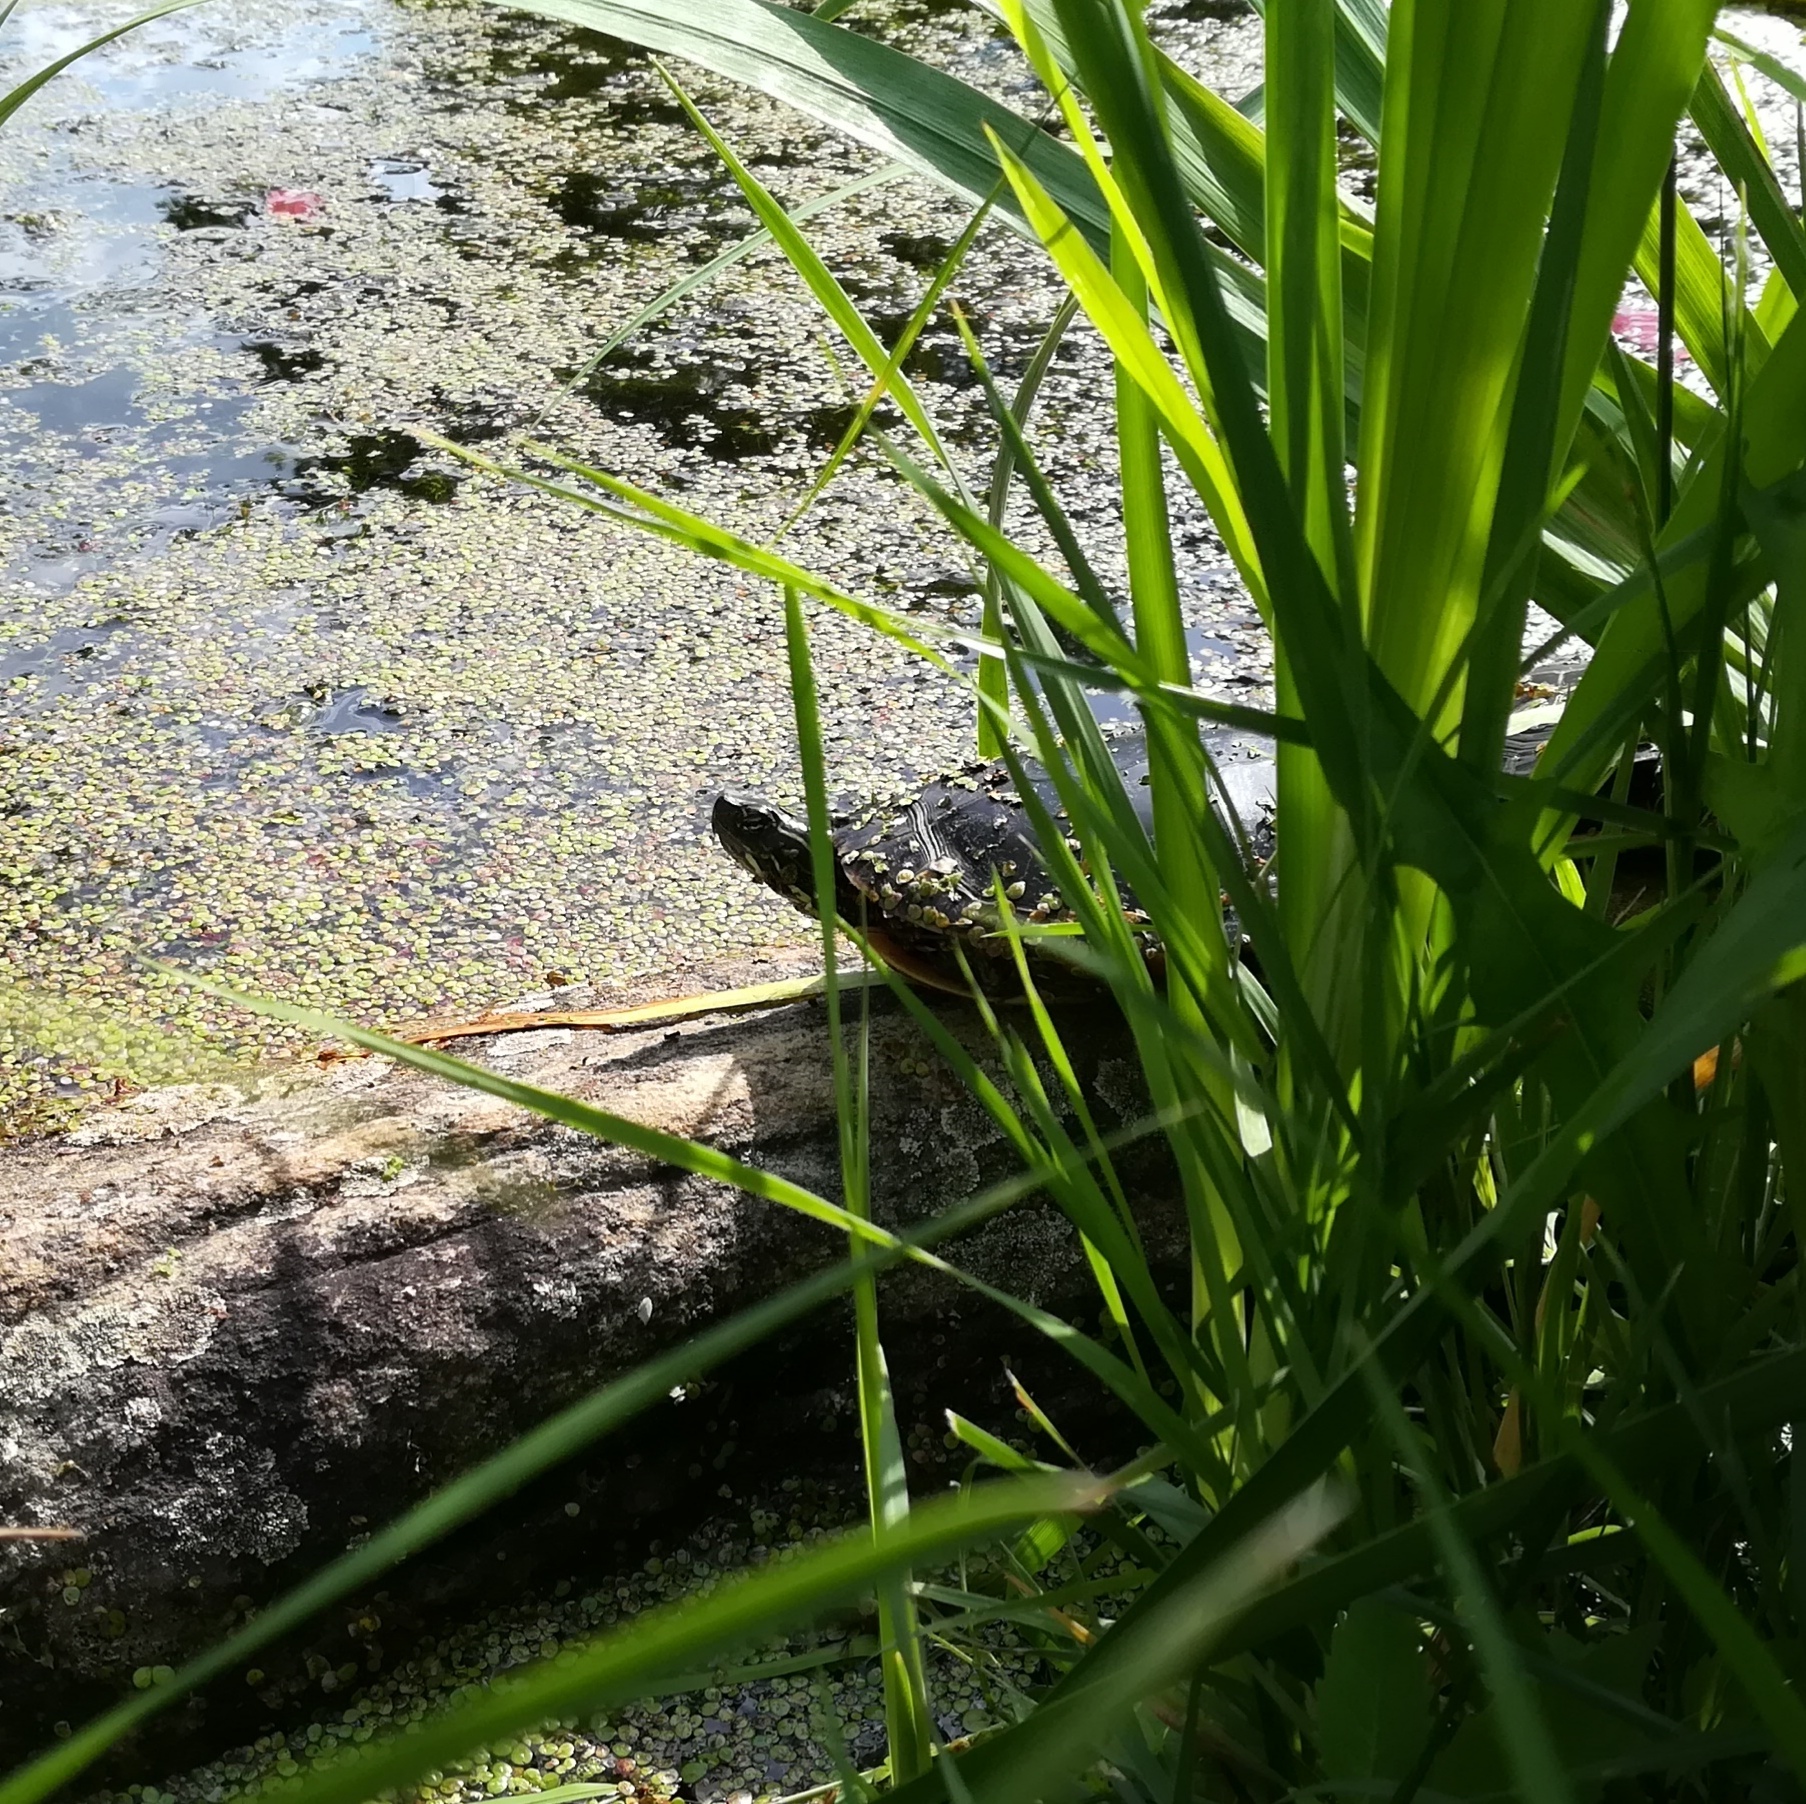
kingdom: Animalia
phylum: Chordata
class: Testudines
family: Emydidae
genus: Chrysemys
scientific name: Chrysemys picta
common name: Painted turtle
